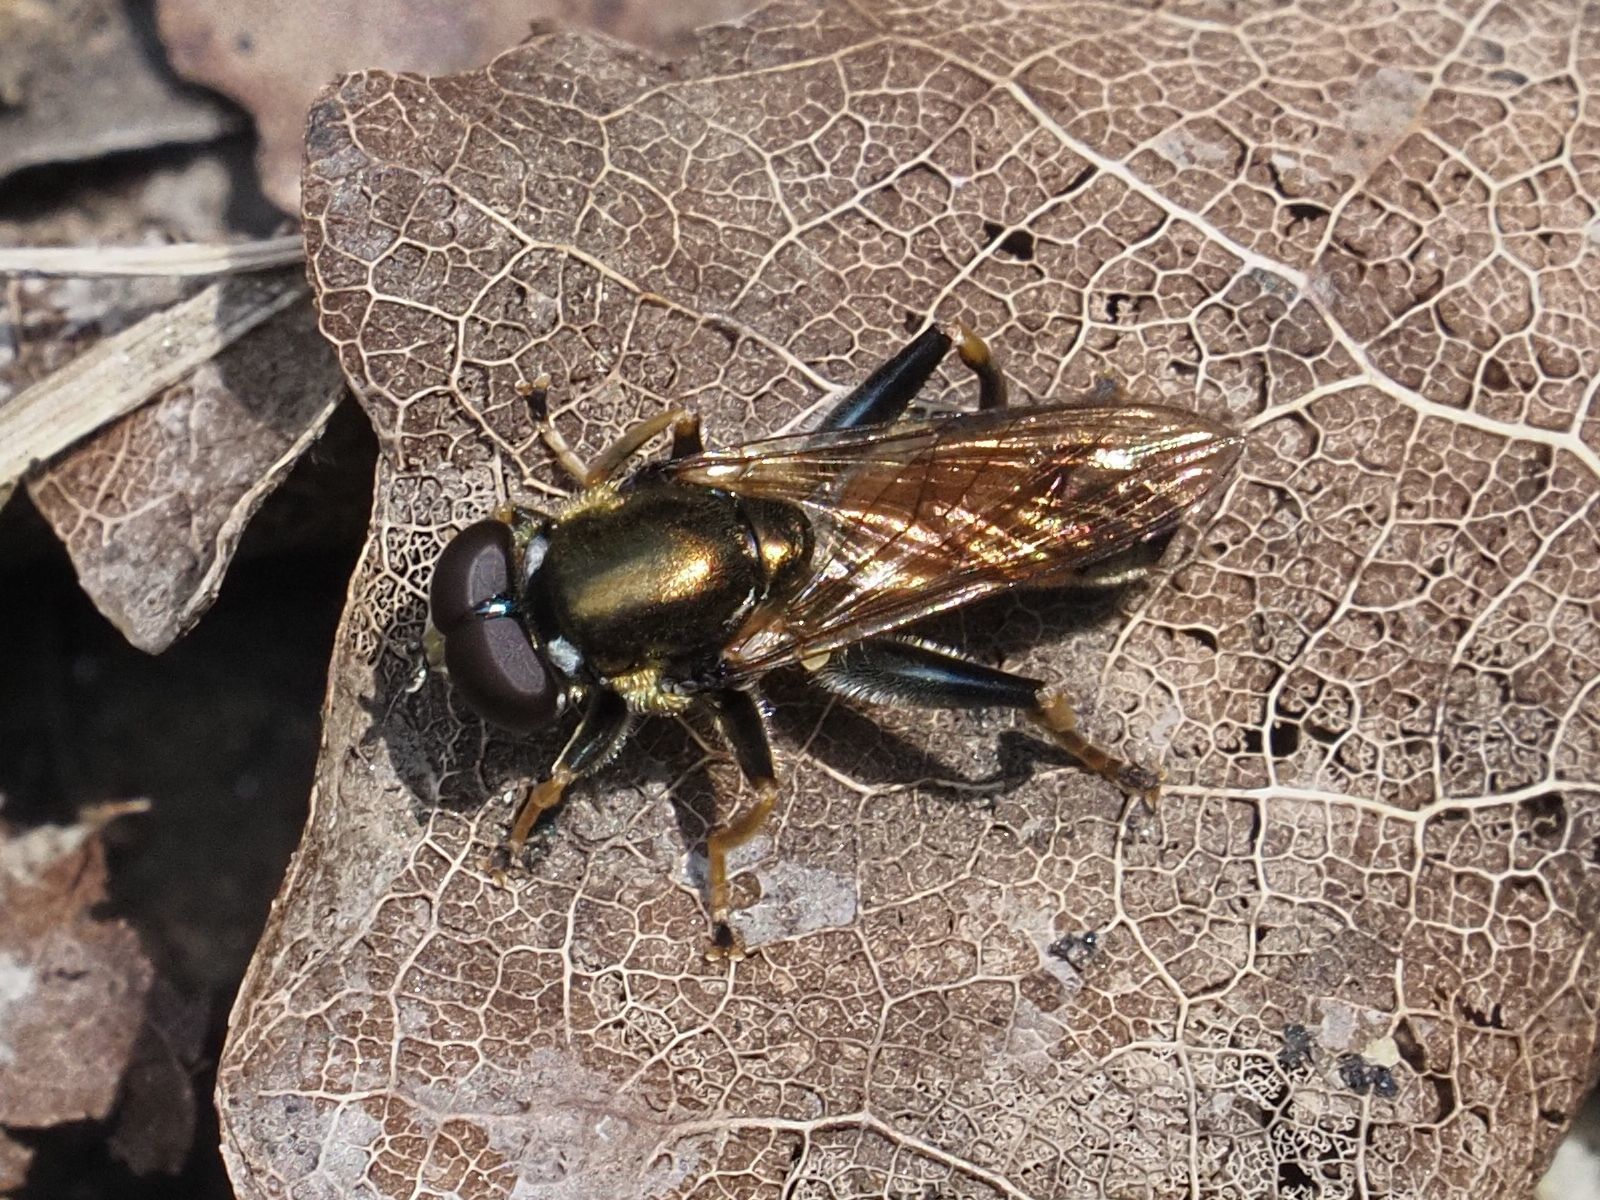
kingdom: Animalia
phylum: Arthropoda
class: Insecta
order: Diptera
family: Syrphidae
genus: Xylota
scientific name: Xylota segnis
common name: Brown-toed forest fly
